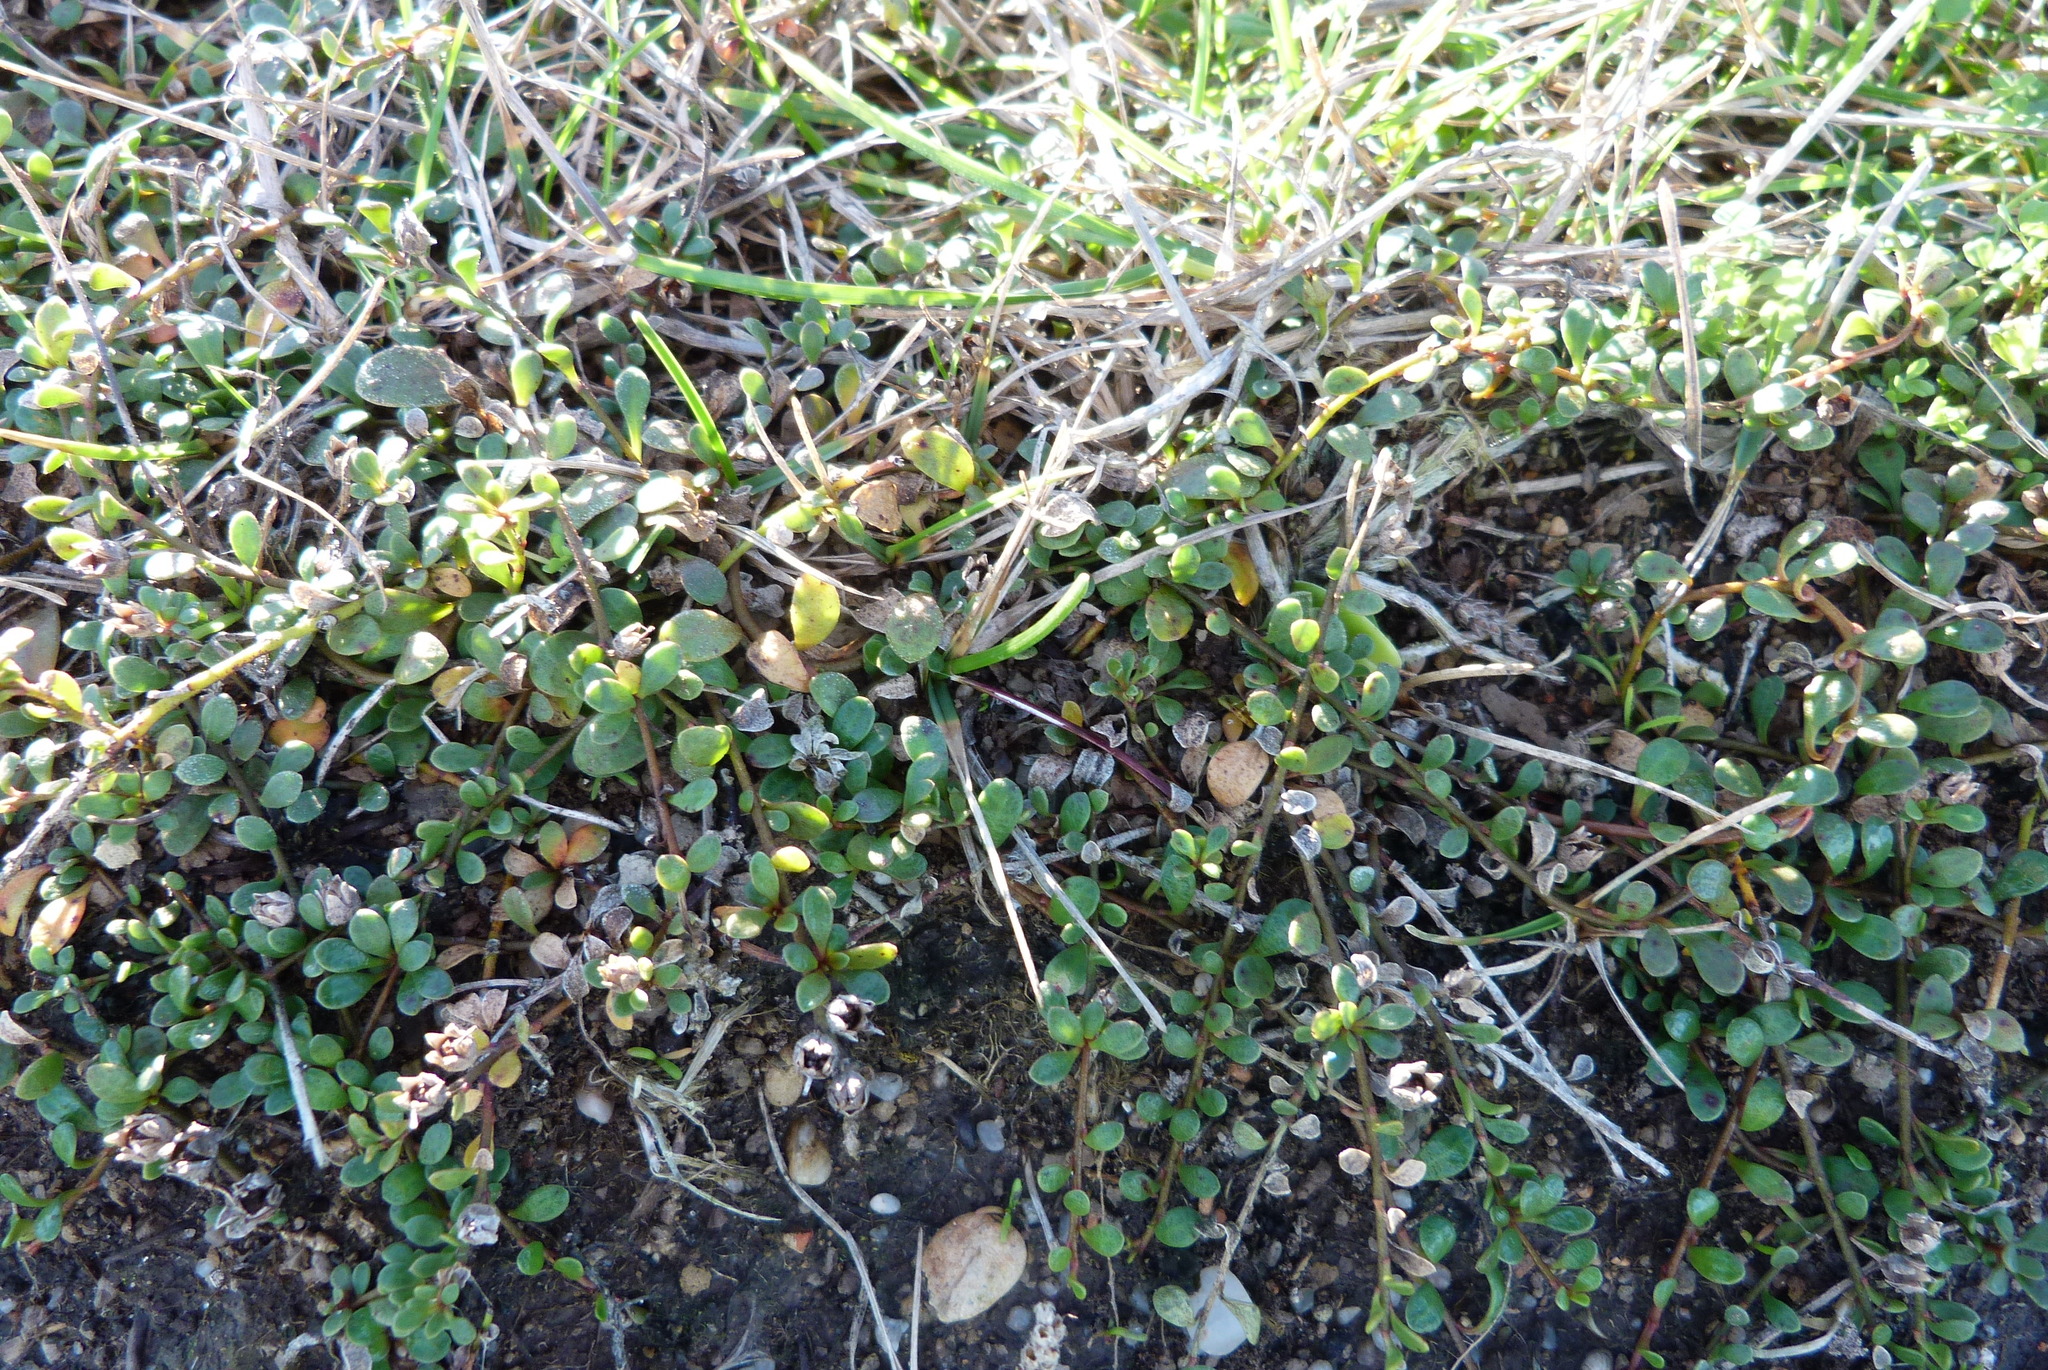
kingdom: Plantae
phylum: Tracheophyta
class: Magnoliopsida
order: Ericales
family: Primulaceae
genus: Samolus
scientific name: Samolus repens
